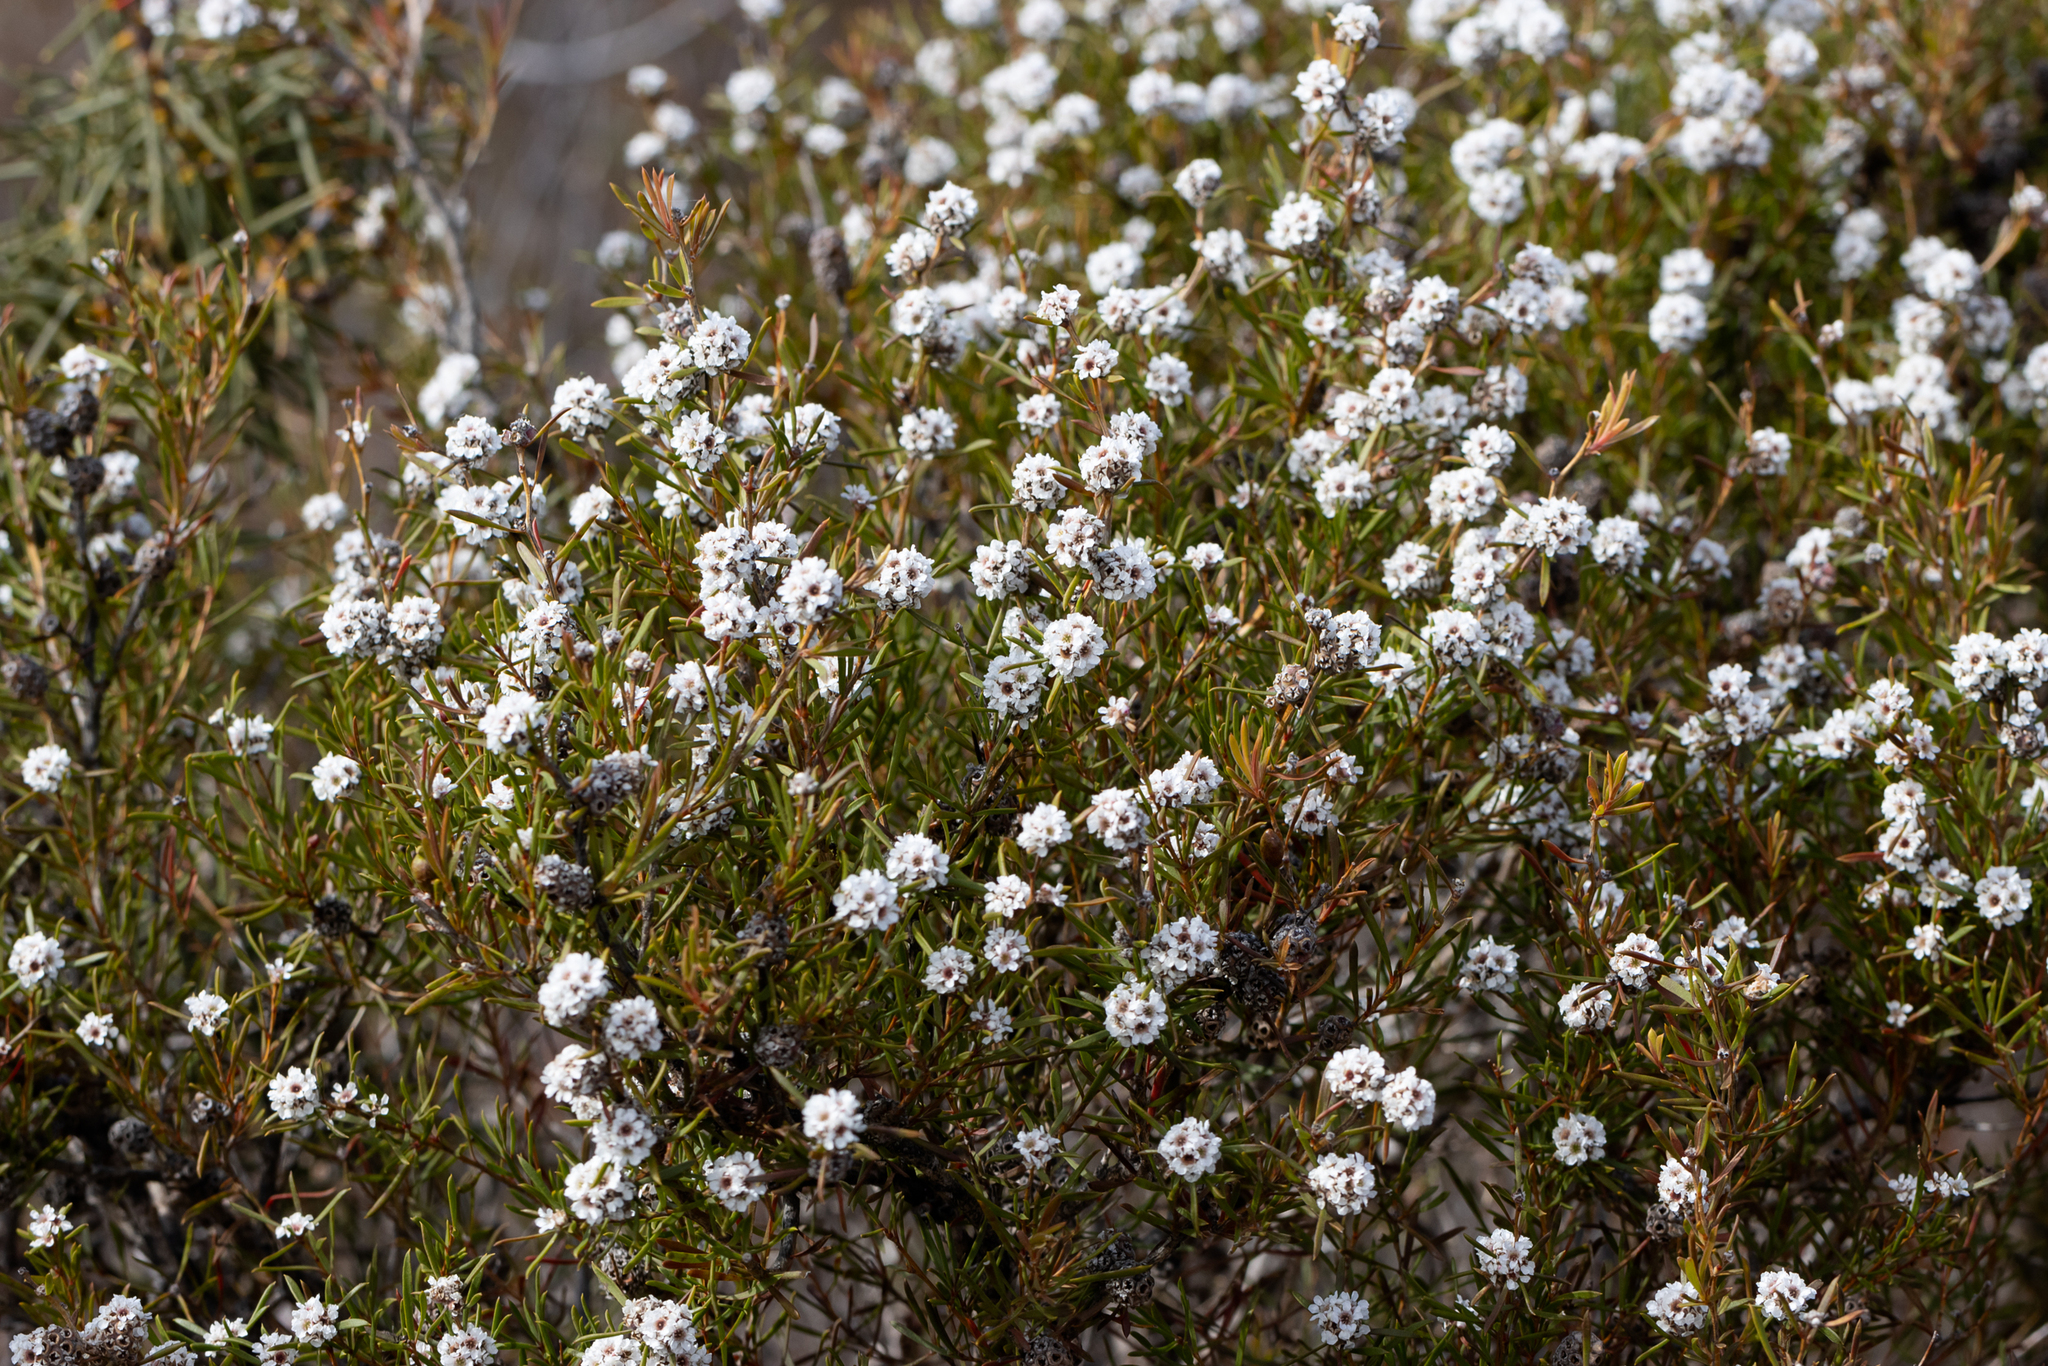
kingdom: Plantae
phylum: Tracheophyta
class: Magnoliopsida
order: Myrtales
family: Myrtaceae
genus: Taxandria
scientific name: Taxandria callistachys
